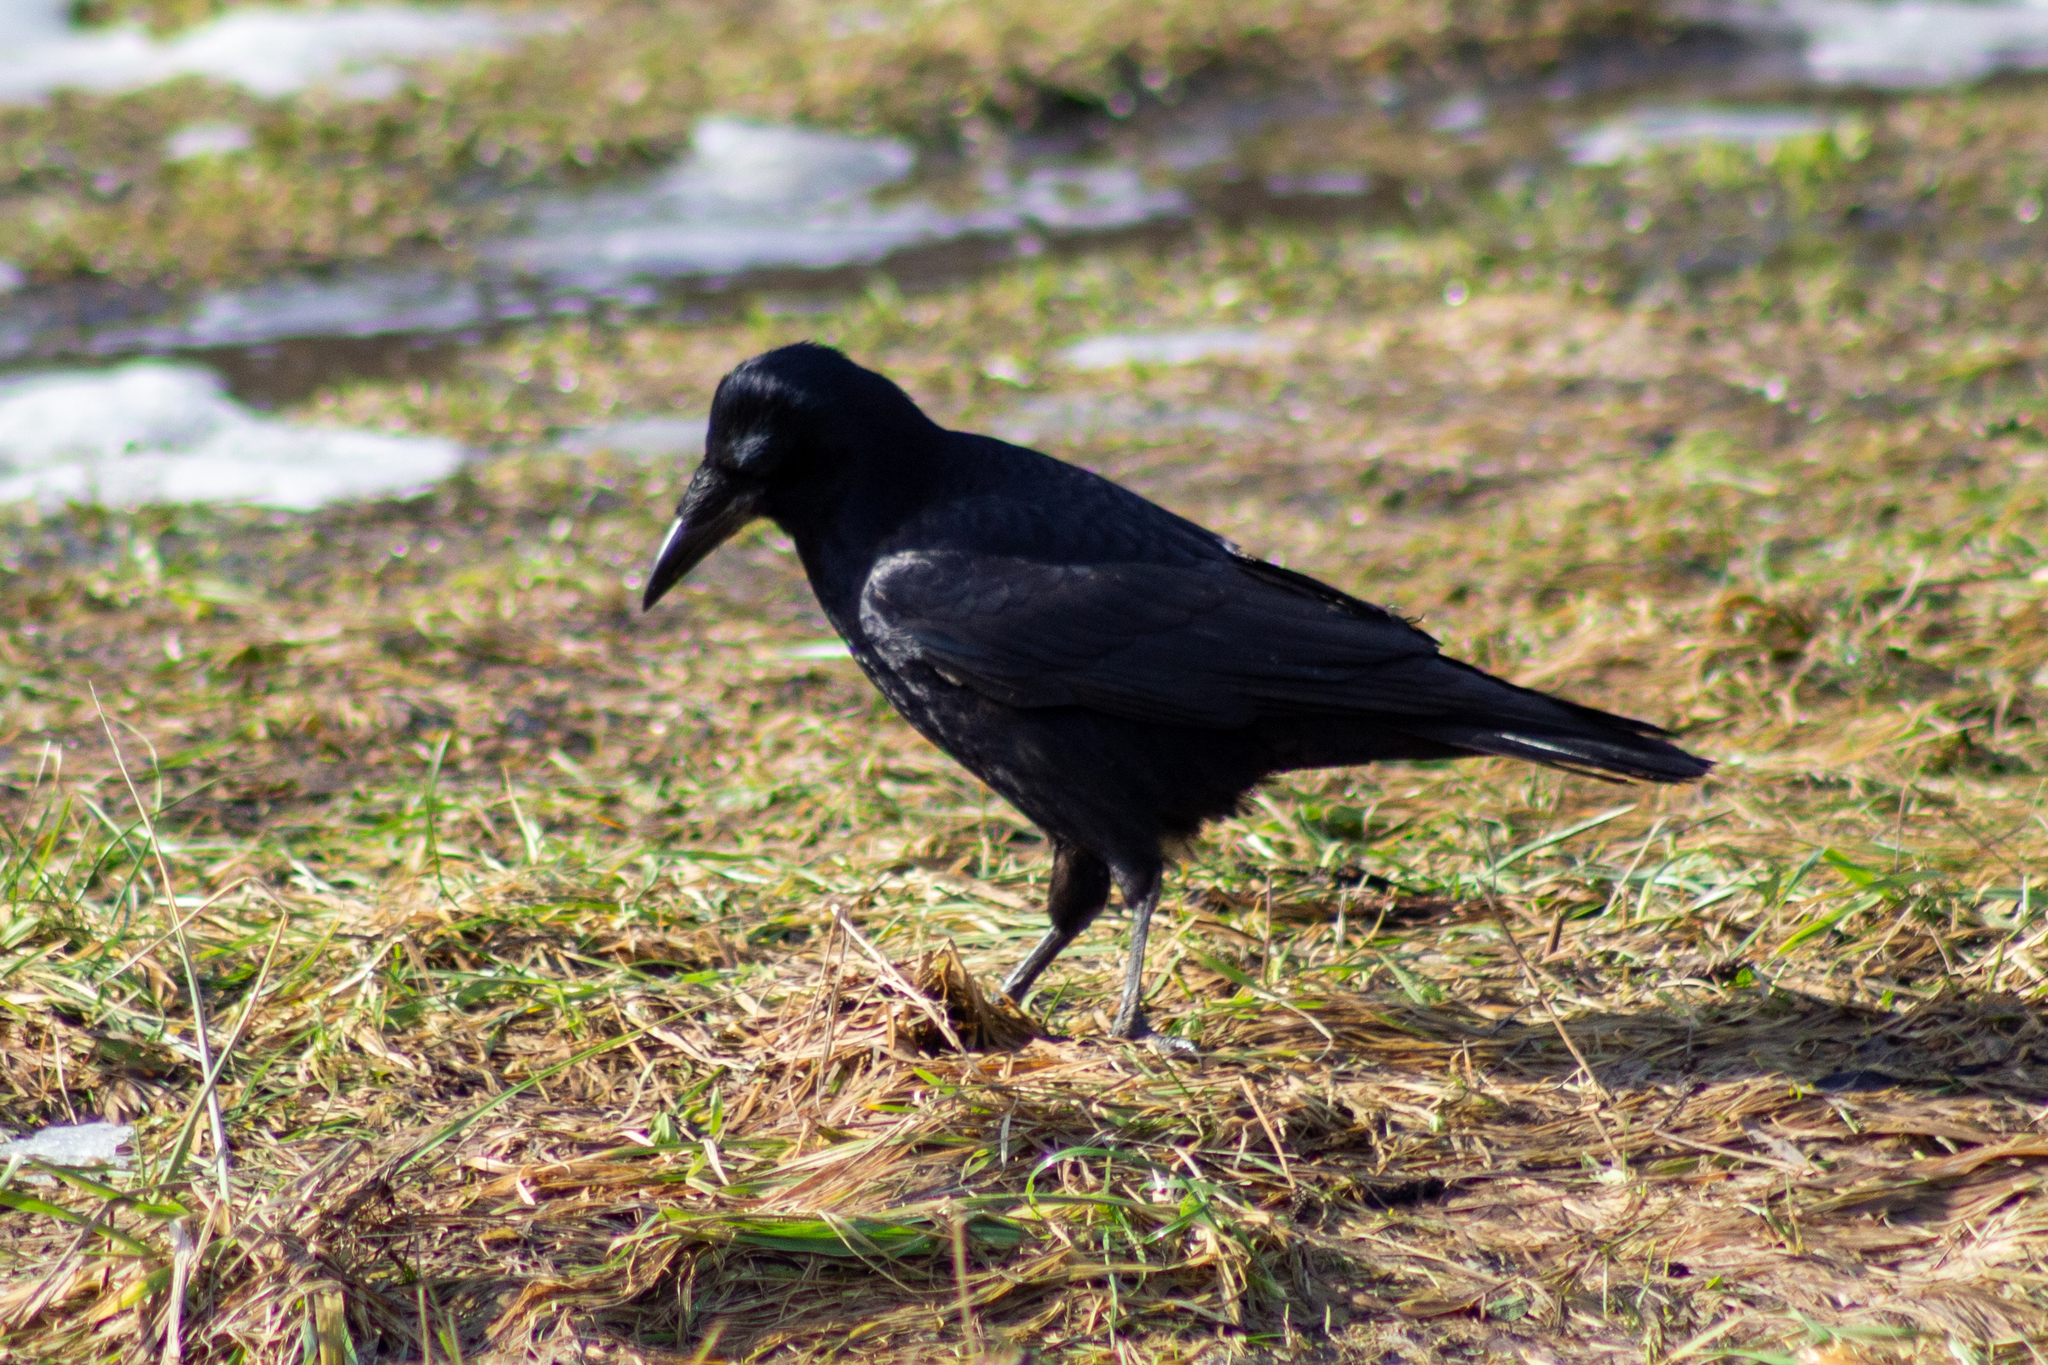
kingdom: Animalia
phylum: Chordata
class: Aves
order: Passeriformes
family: Corvidae
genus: Corvus
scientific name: Corvus frugilegus
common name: Rook
